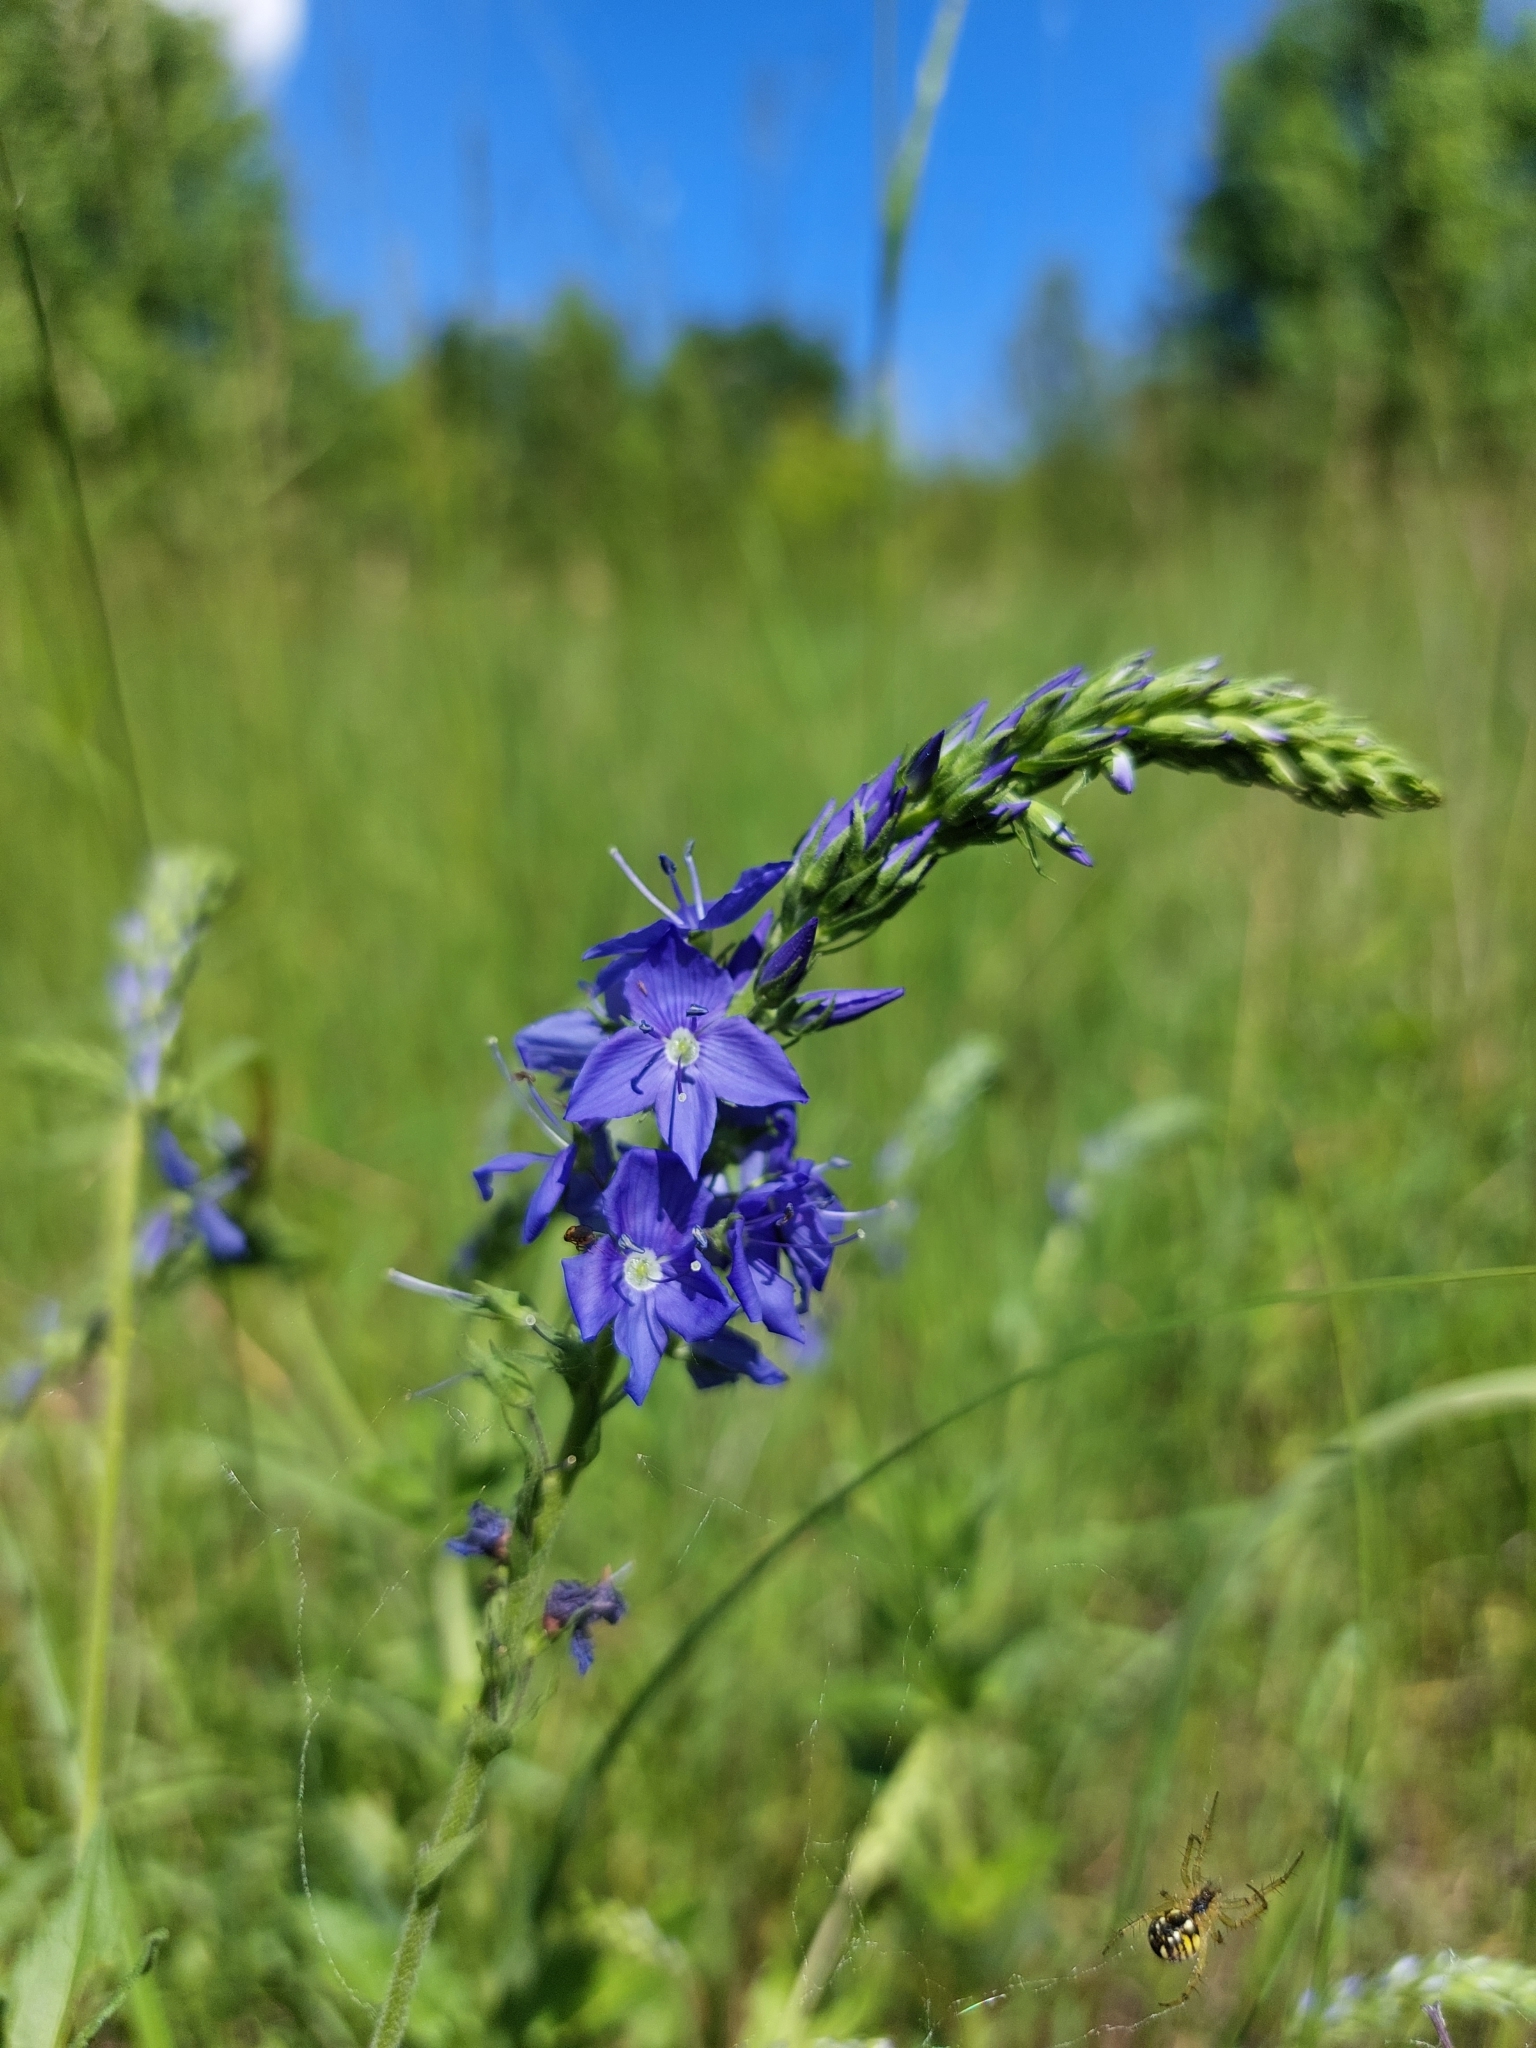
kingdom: Plantae
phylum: Tracheophyta
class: Magnoliopsida
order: Lamiales
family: Plantaginaceae
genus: Veronica
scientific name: Veronica teucrium
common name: Large speedwell
